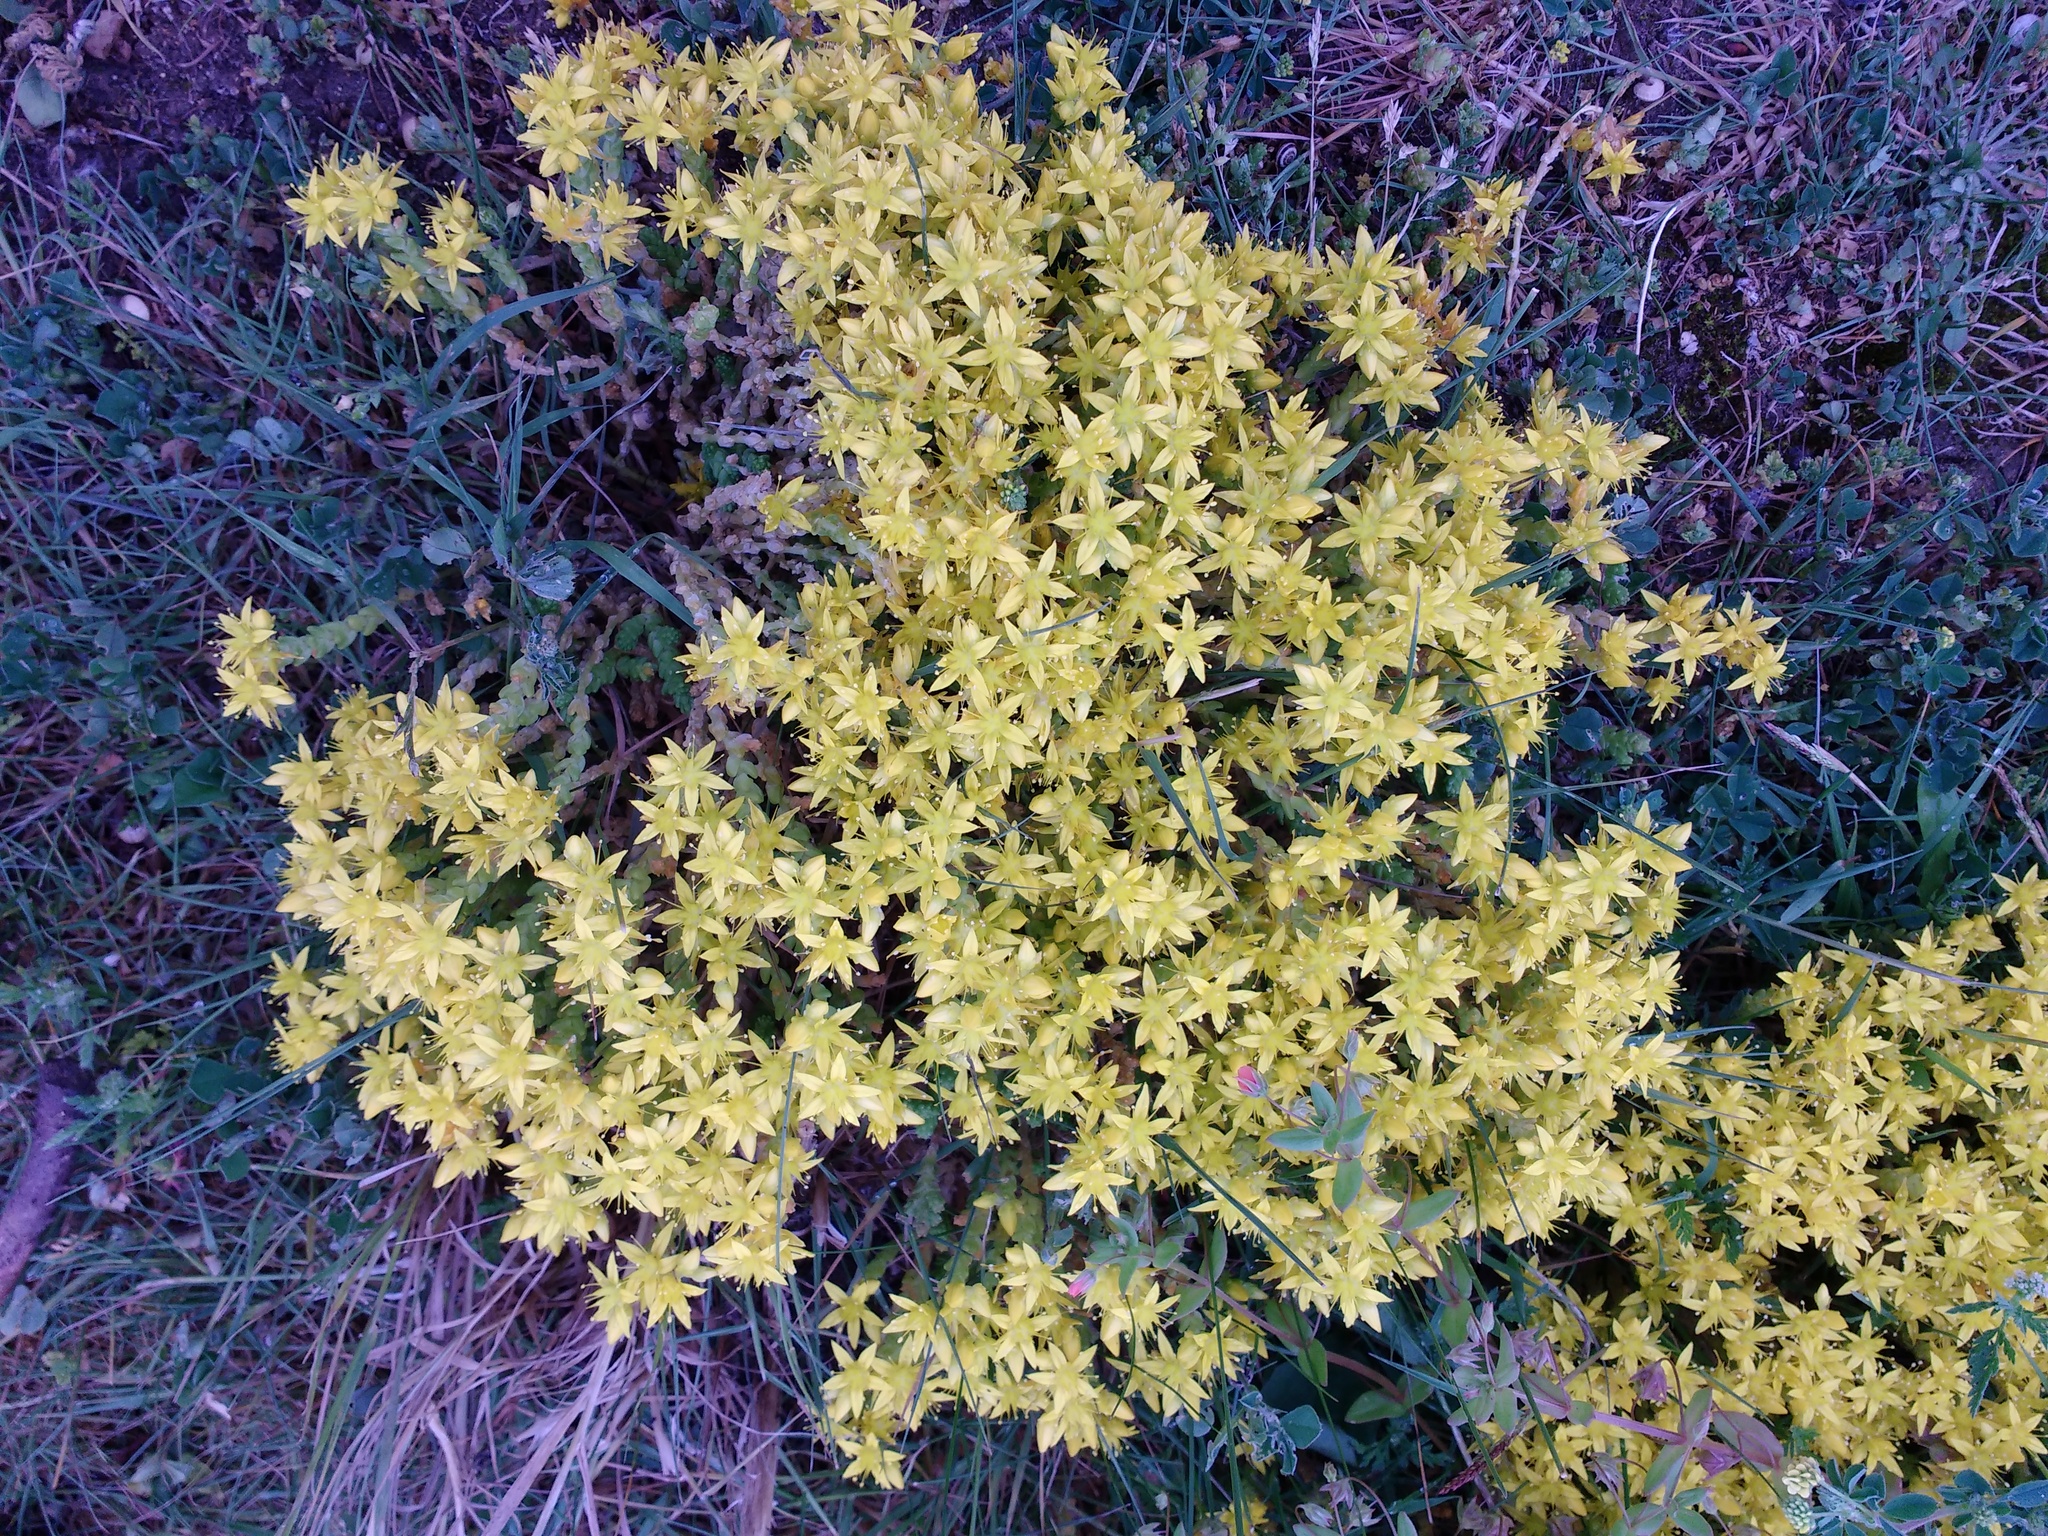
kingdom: Plantae
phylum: Tracheophyta
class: Magnoliopsida
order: Saxifragales
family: Crassulaceae
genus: Sedum
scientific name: Sedum acre
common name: Biting stonecrop
